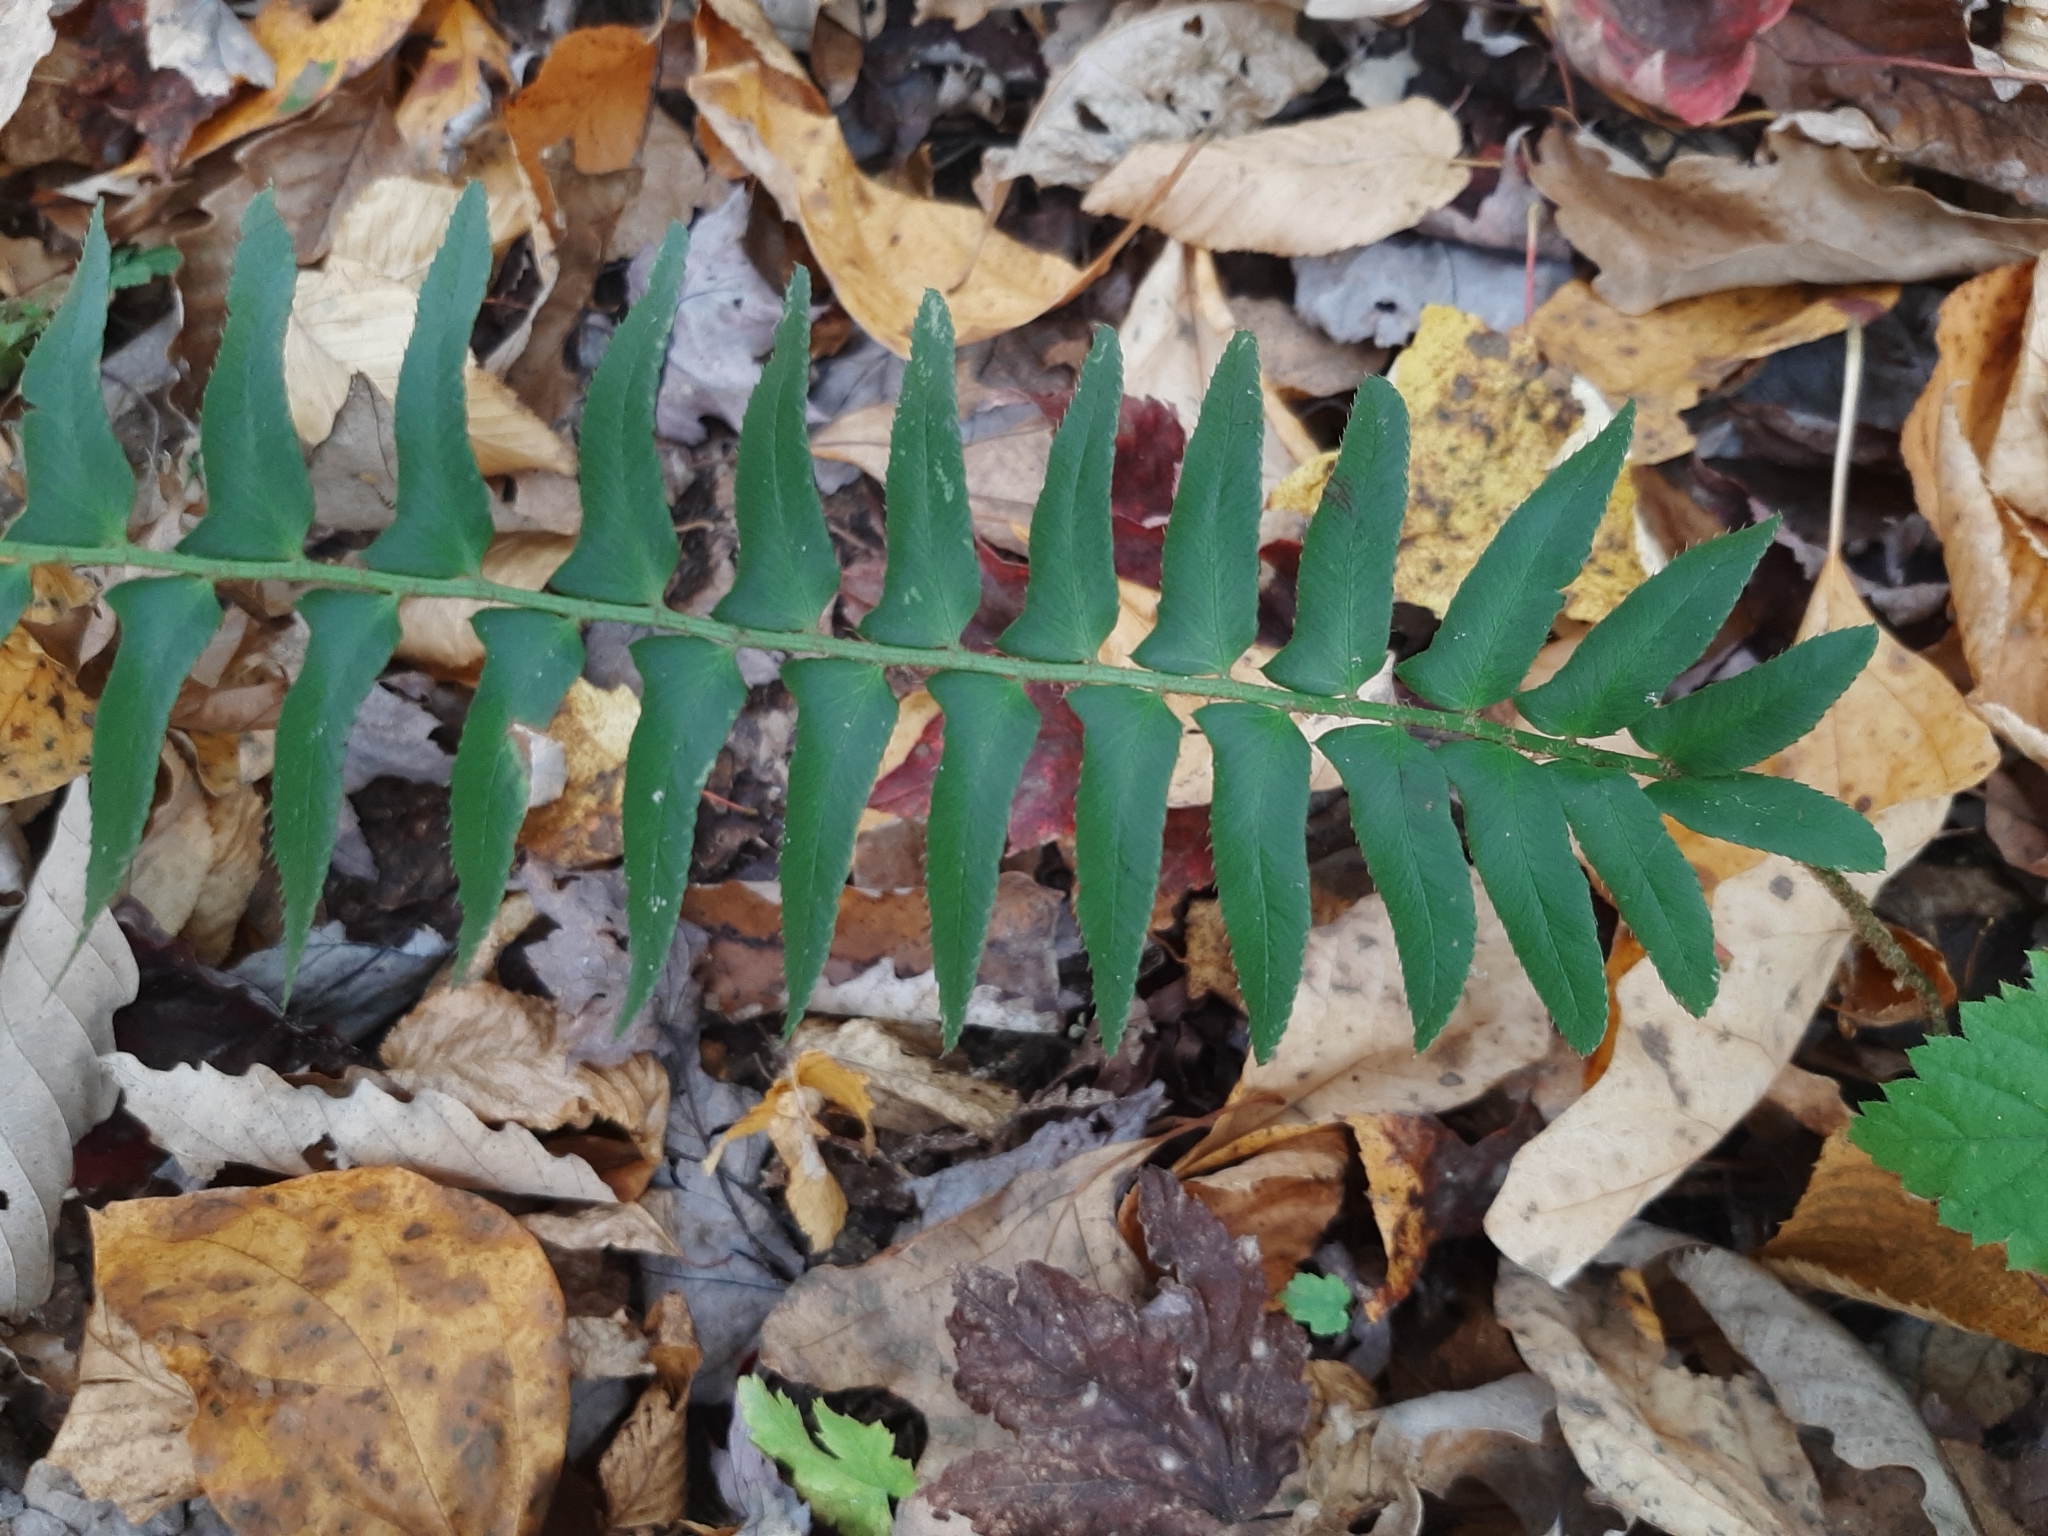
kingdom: Plantae
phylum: Tracheophyta
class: Polypodiopsida
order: Polypodiales
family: Dryopteridaceae
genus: Polystichum
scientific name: Polystichum acrostichoides
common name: Christmas fern
